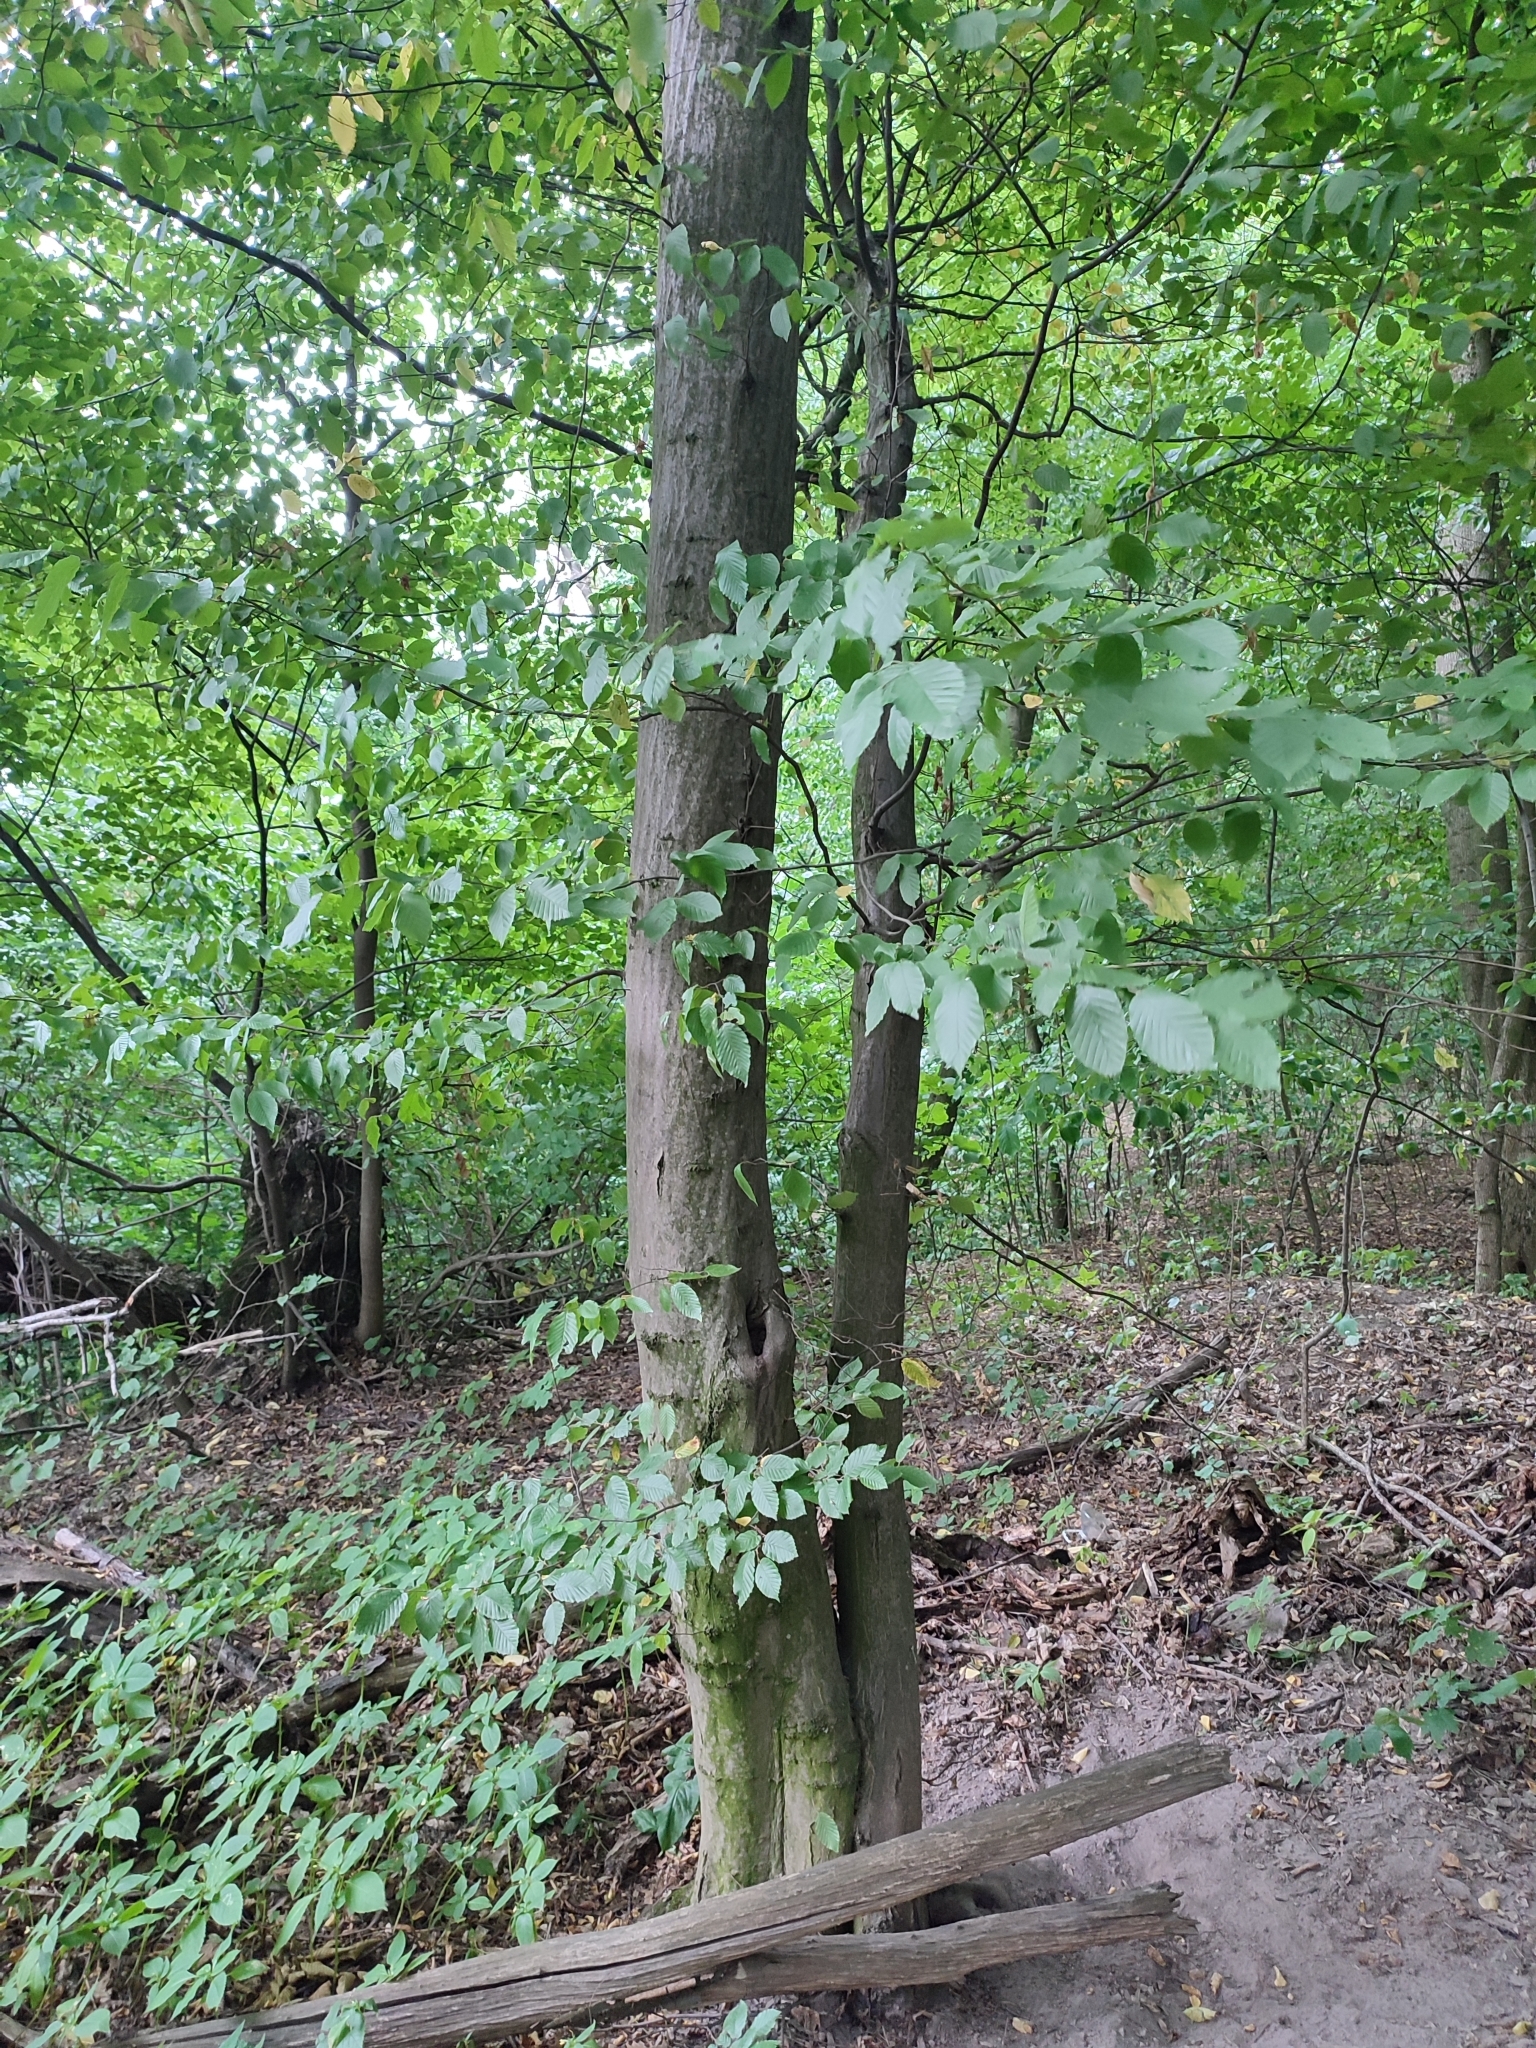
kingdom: Plantae
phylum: Tracheophyta
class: Magnoliopsida
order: Fagales
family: Betulaceae
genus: Carpinus
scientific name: Carpinus betulus
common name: Hornbeam
